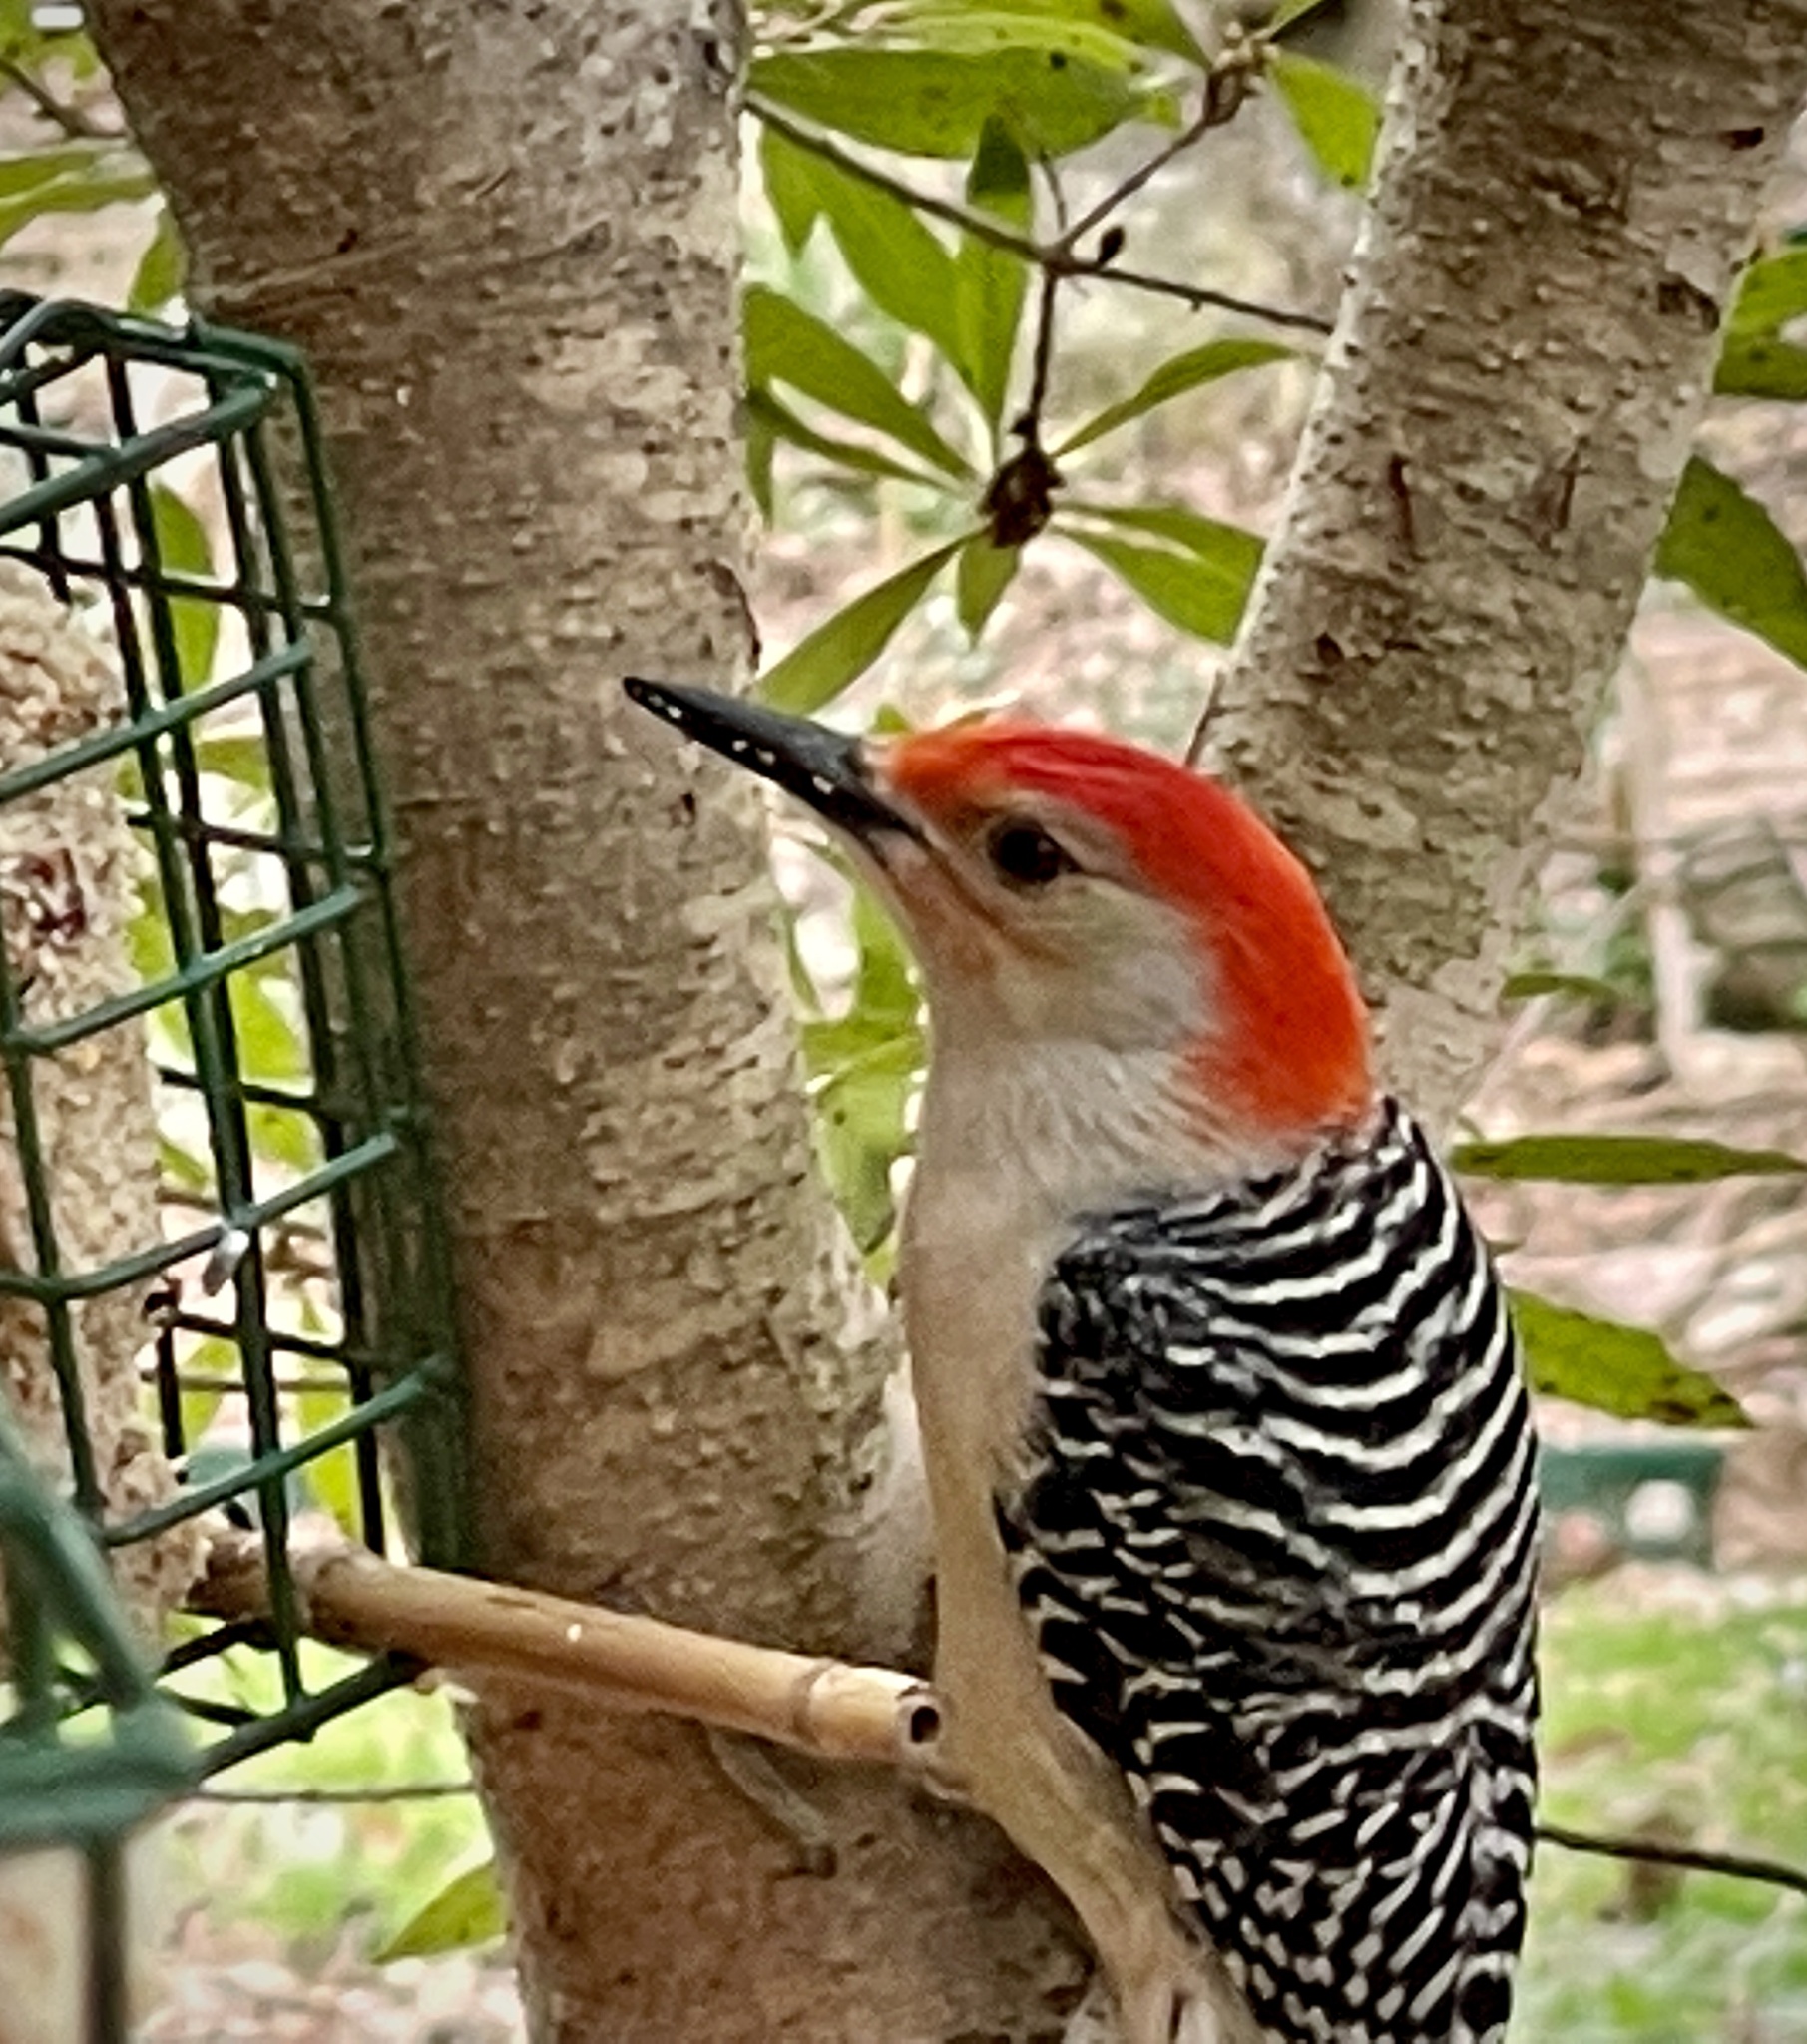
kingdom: Animalia
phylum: Chordata
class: Aves
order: Piciformes
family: Picidae
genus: Melanerpes
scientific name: Melanerpes carolinus
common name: Red-bellied woodpecker
